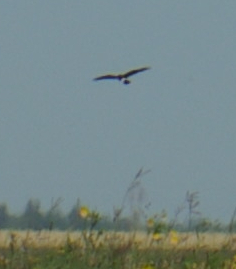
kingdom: Animalia
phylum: Chordata
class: Aves
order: Accipitriformes
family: Accipitridae
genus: Circus
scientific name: Circus cyaneus
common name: Hen harrier
